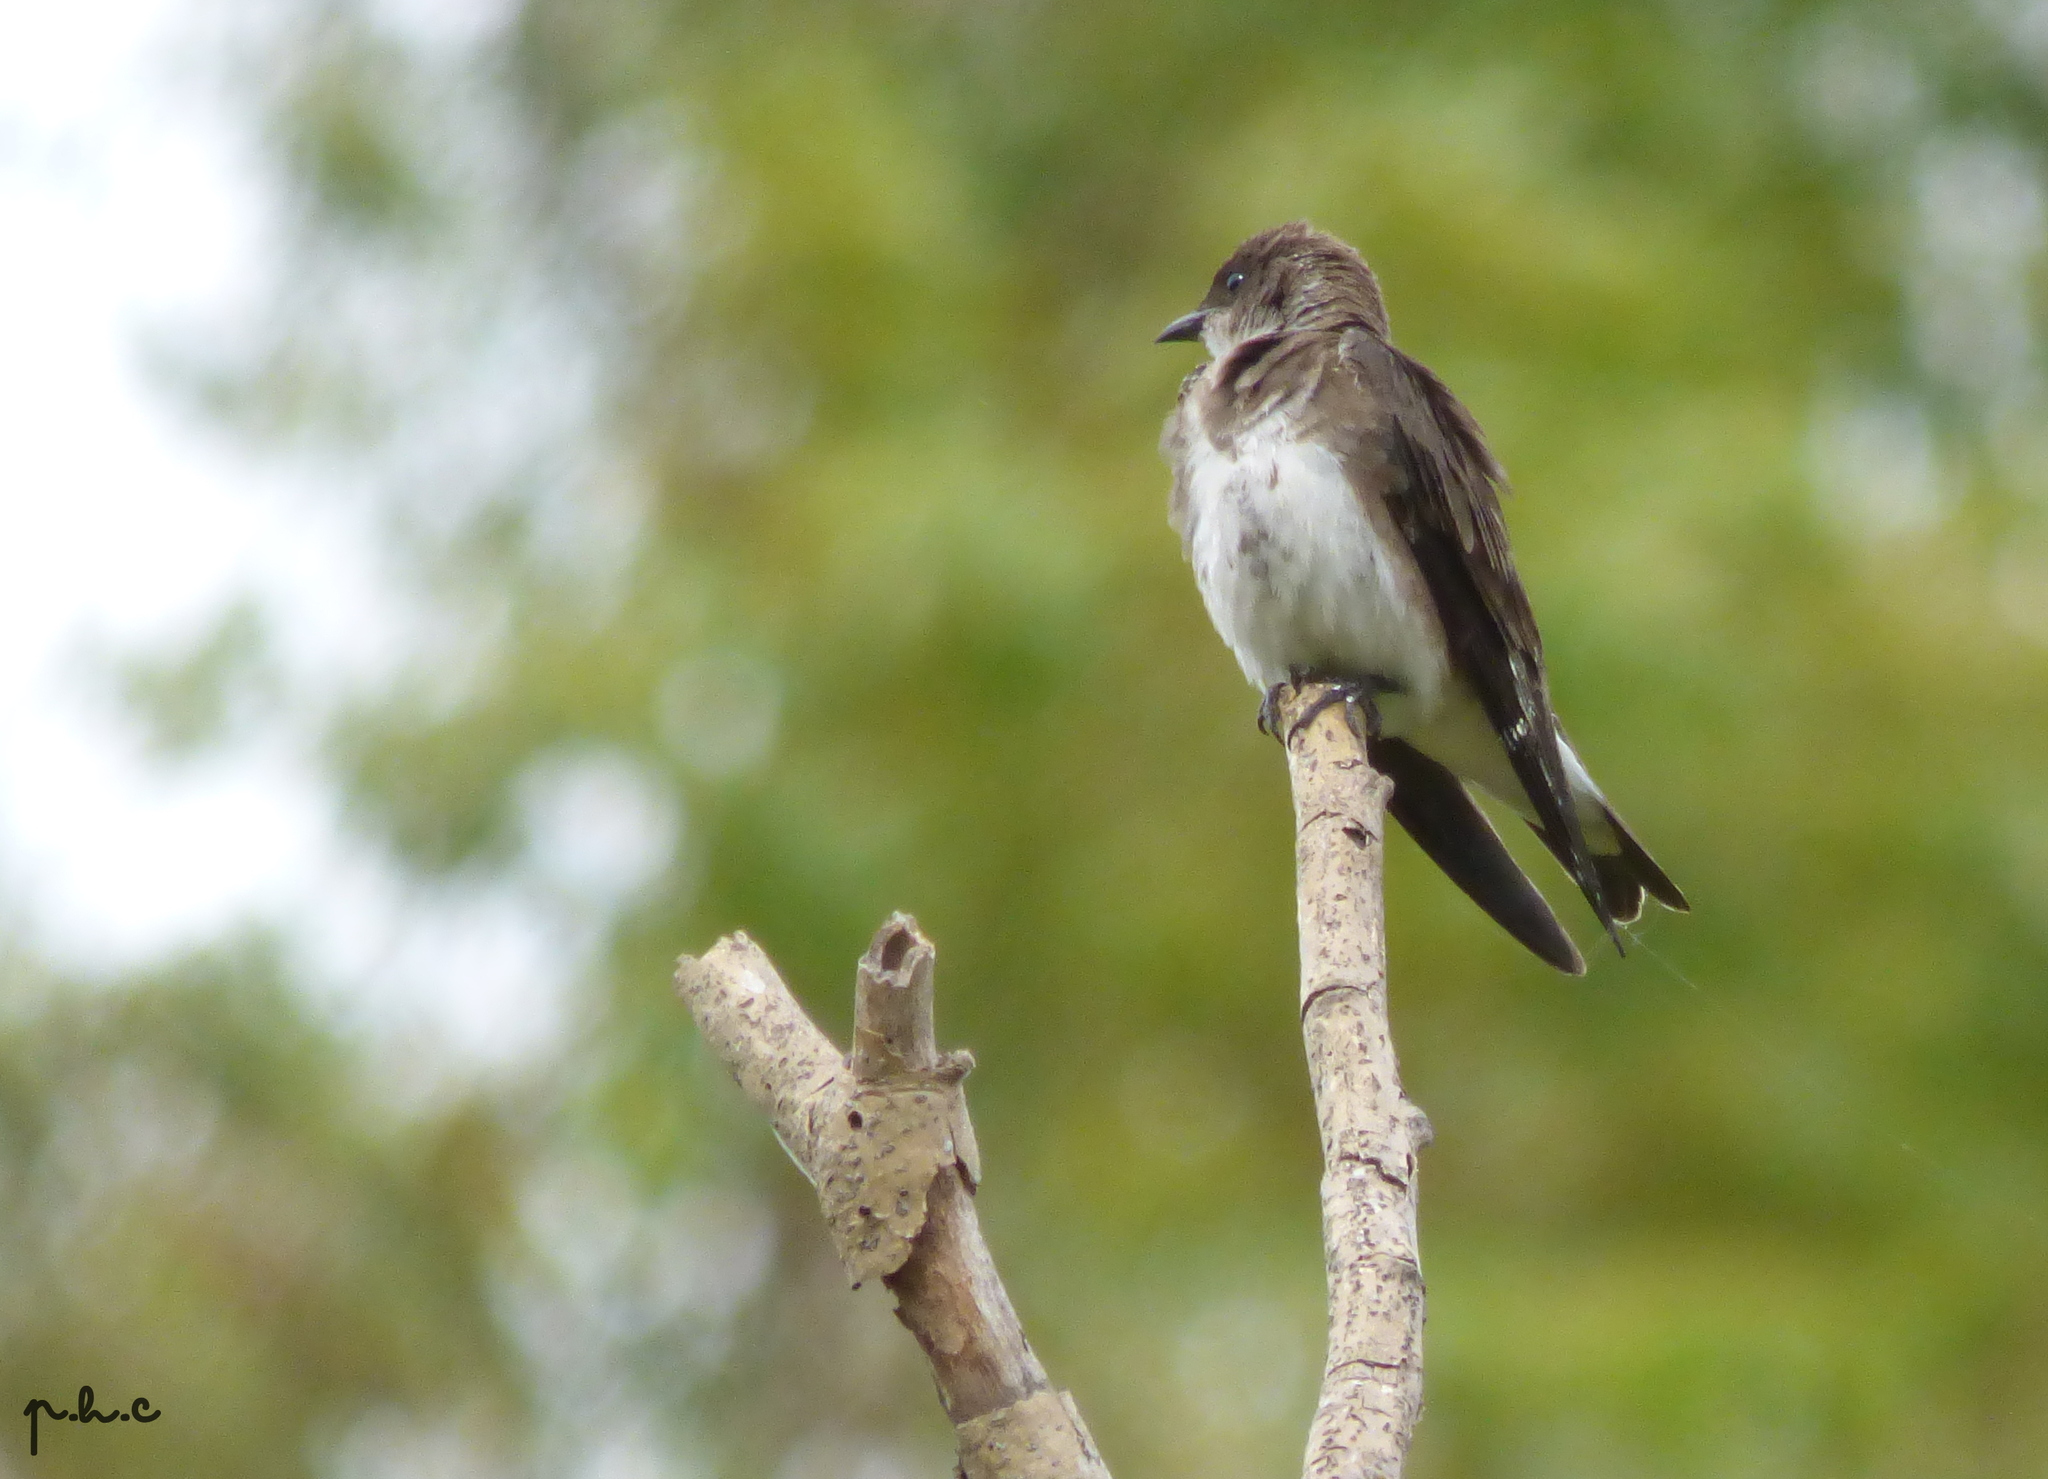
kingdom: Animalia
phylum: Chordata
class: Aves
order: Passeriformes
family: Hirundinidae
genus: Progne
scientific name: Progne tapera
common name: Brown-chested martin
